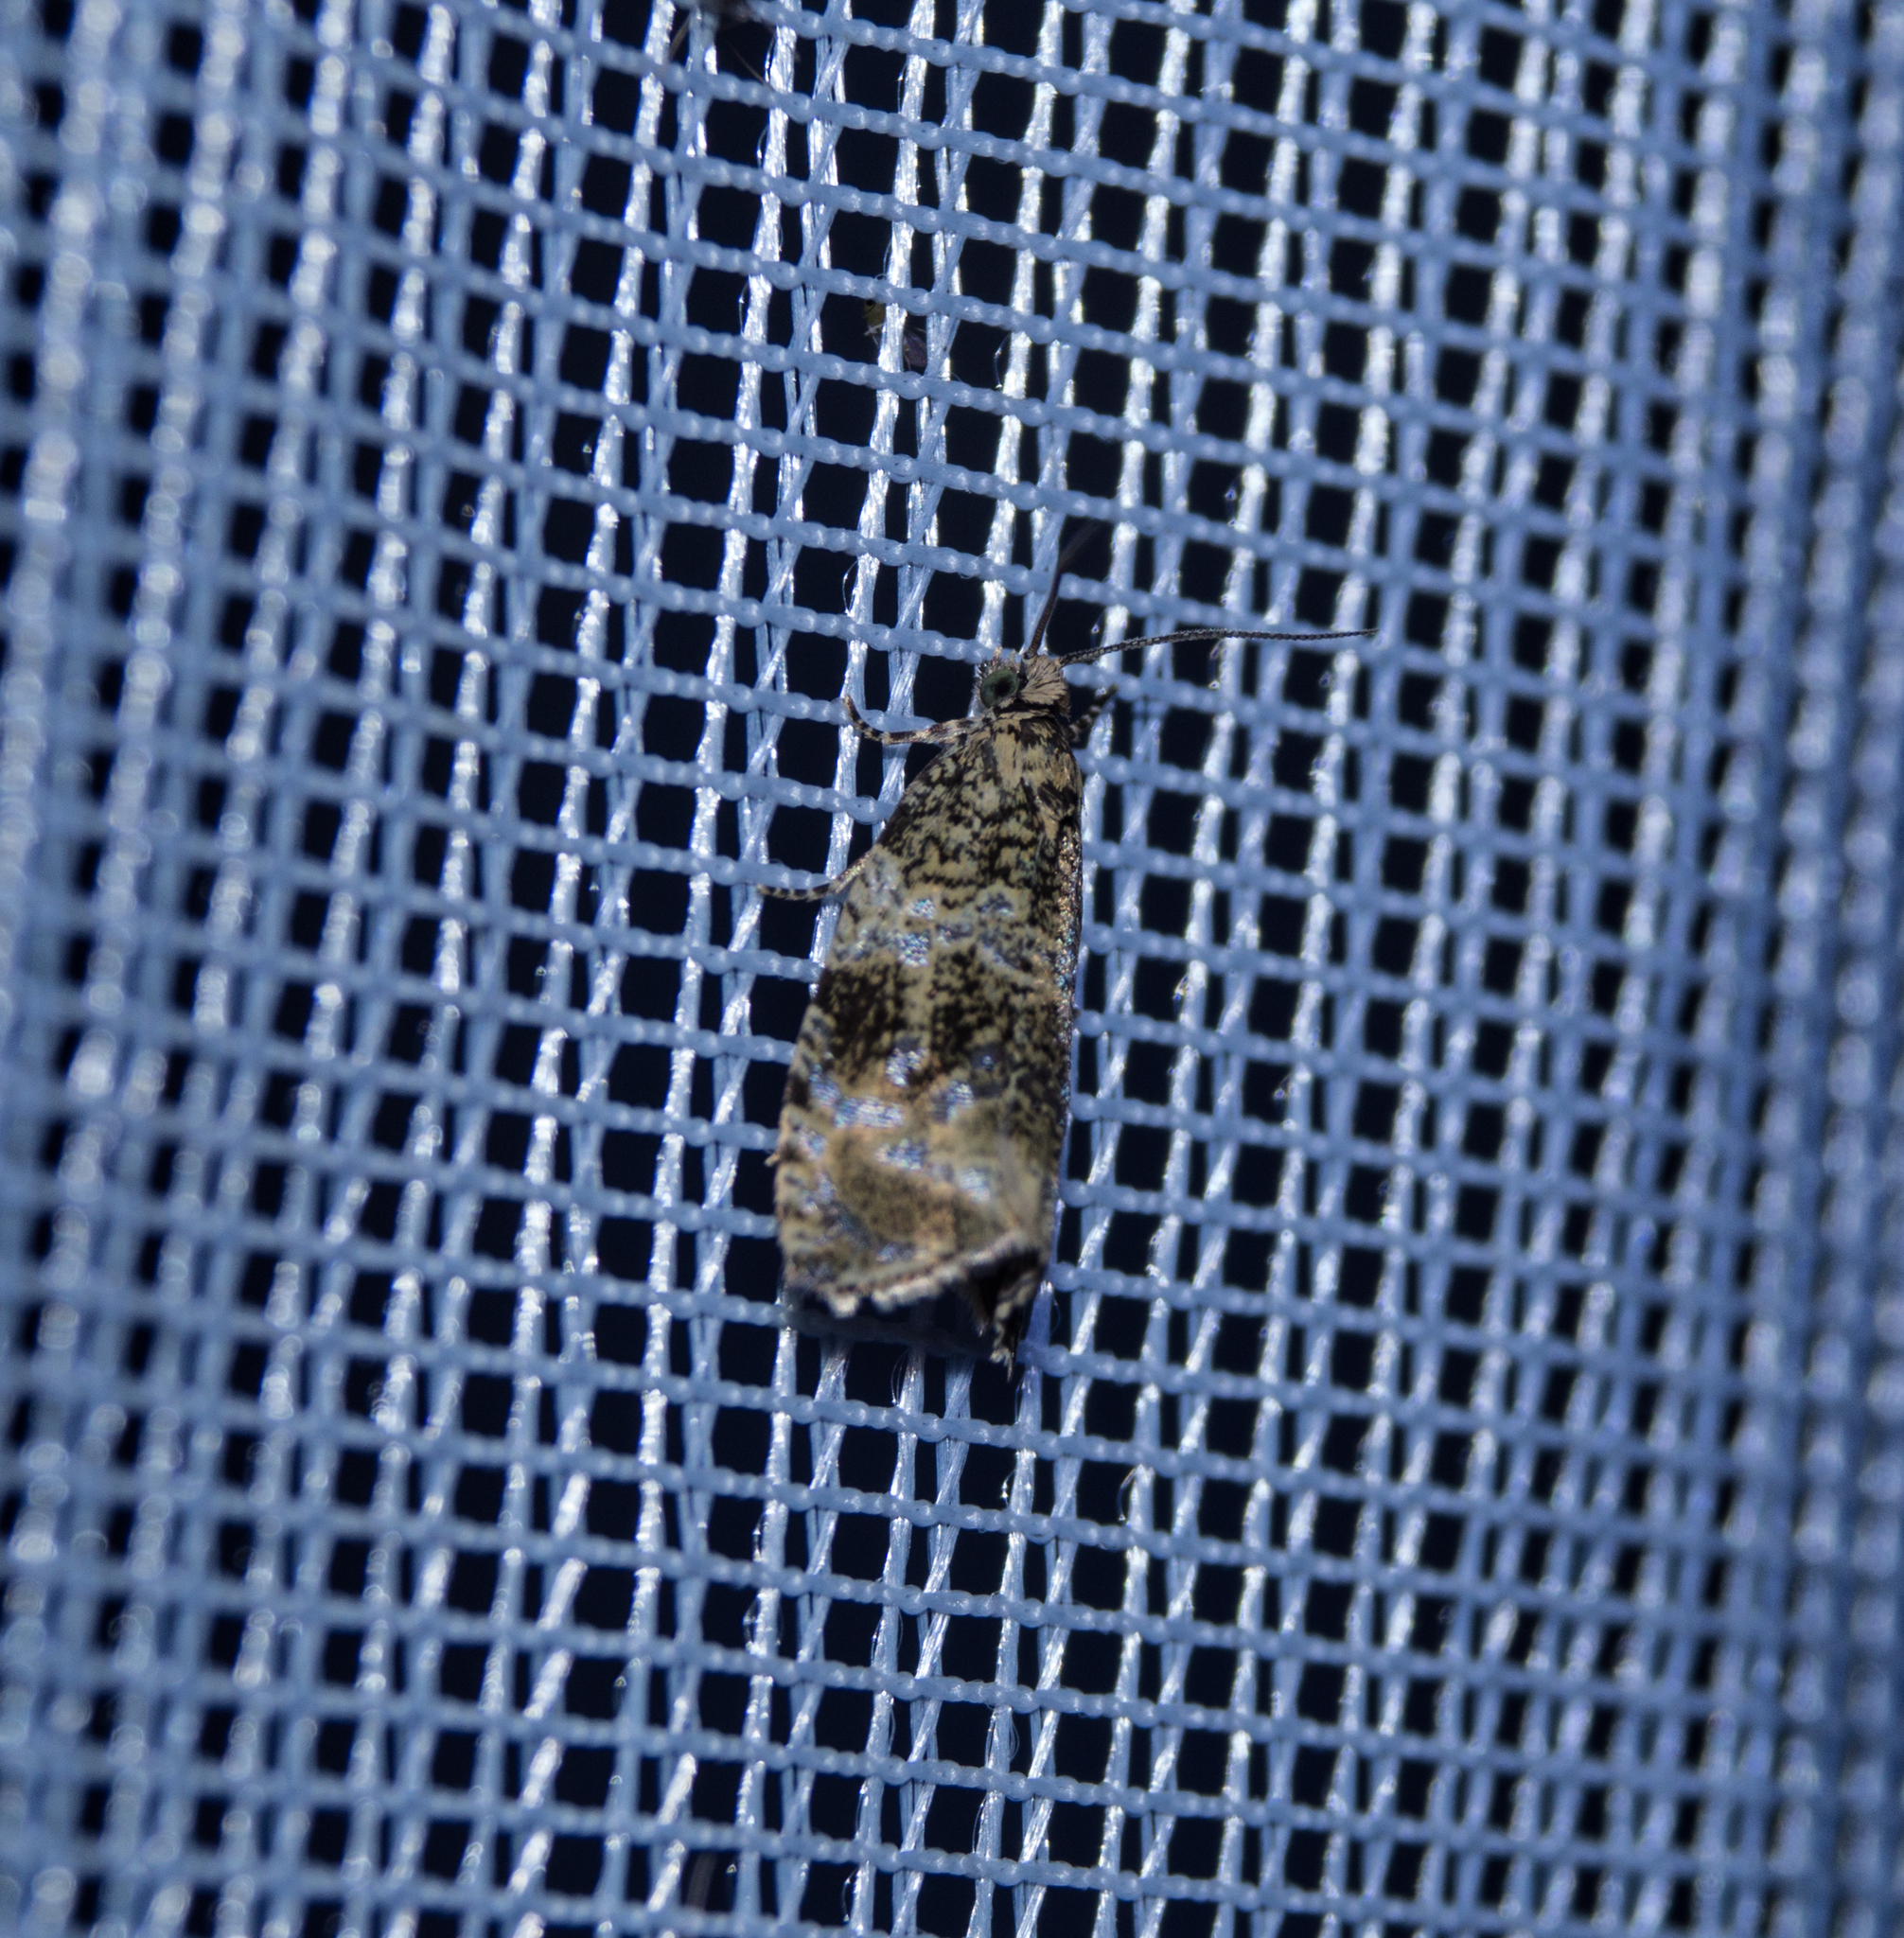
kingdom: Animalia
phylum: Arthropoda
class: Insecta
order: Lepidoptera
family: Tortricidae
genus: Syricoris
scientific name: Syricoris lacunana
